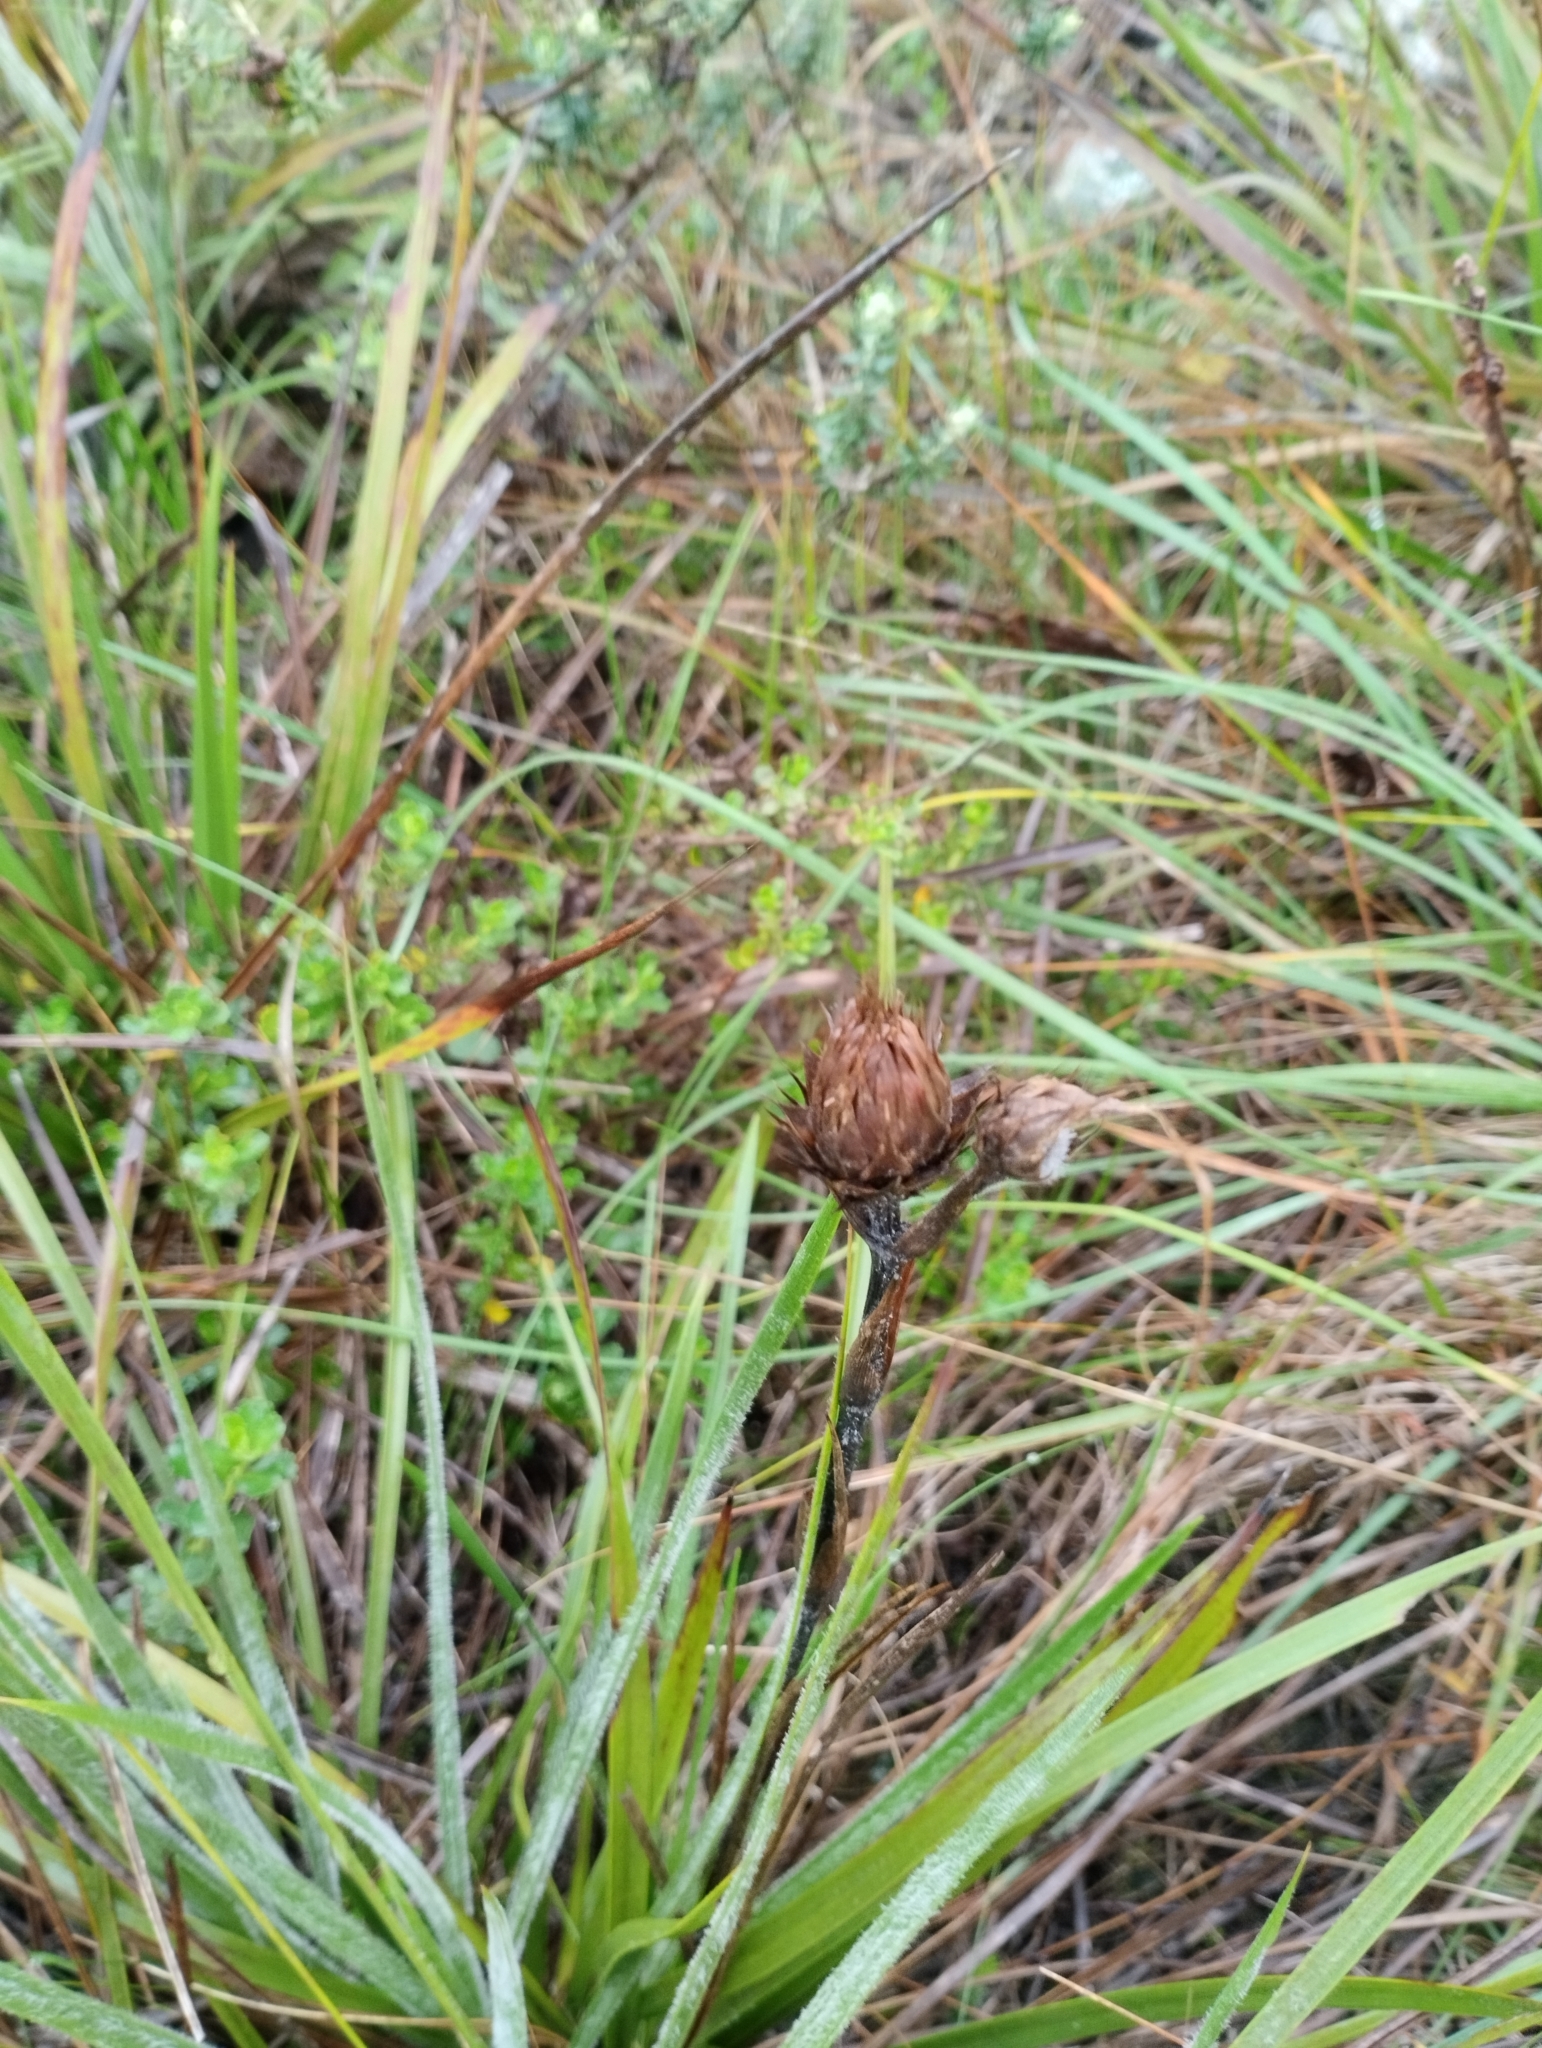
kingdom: Plantae
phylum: Tracheophyta
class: Magnoliopsida
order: Asterales
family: Asteraceae
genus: Schlechtendalia
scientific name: Schlechtendalia luzulifolia
